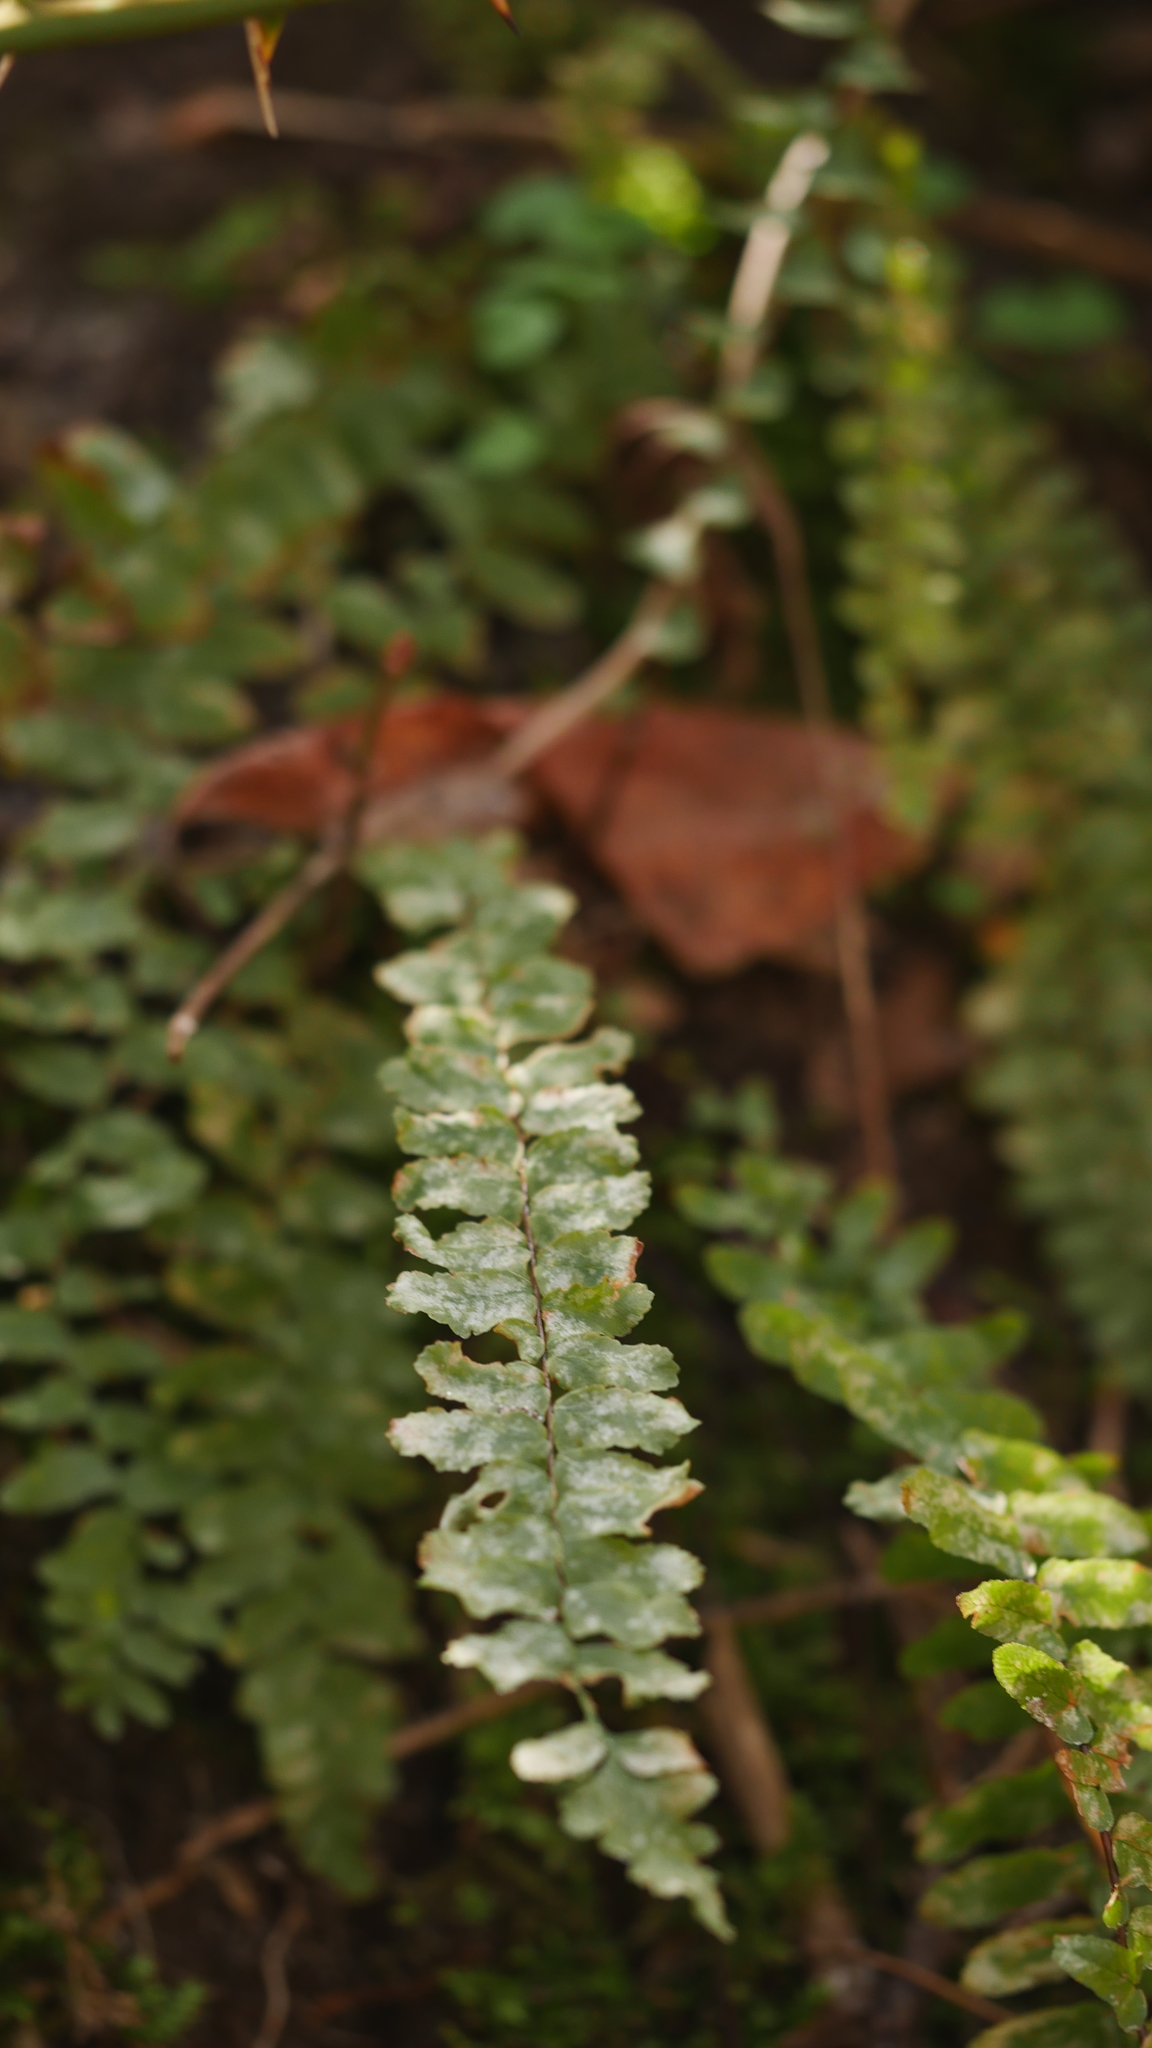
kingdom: Plantae
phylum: Tracheophyta
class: Polypodiopsida
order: Polypodiales
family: Aspleniaceae
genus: Asplenium
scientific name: Asplenium platyneuron
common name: Ebony spleenwort
